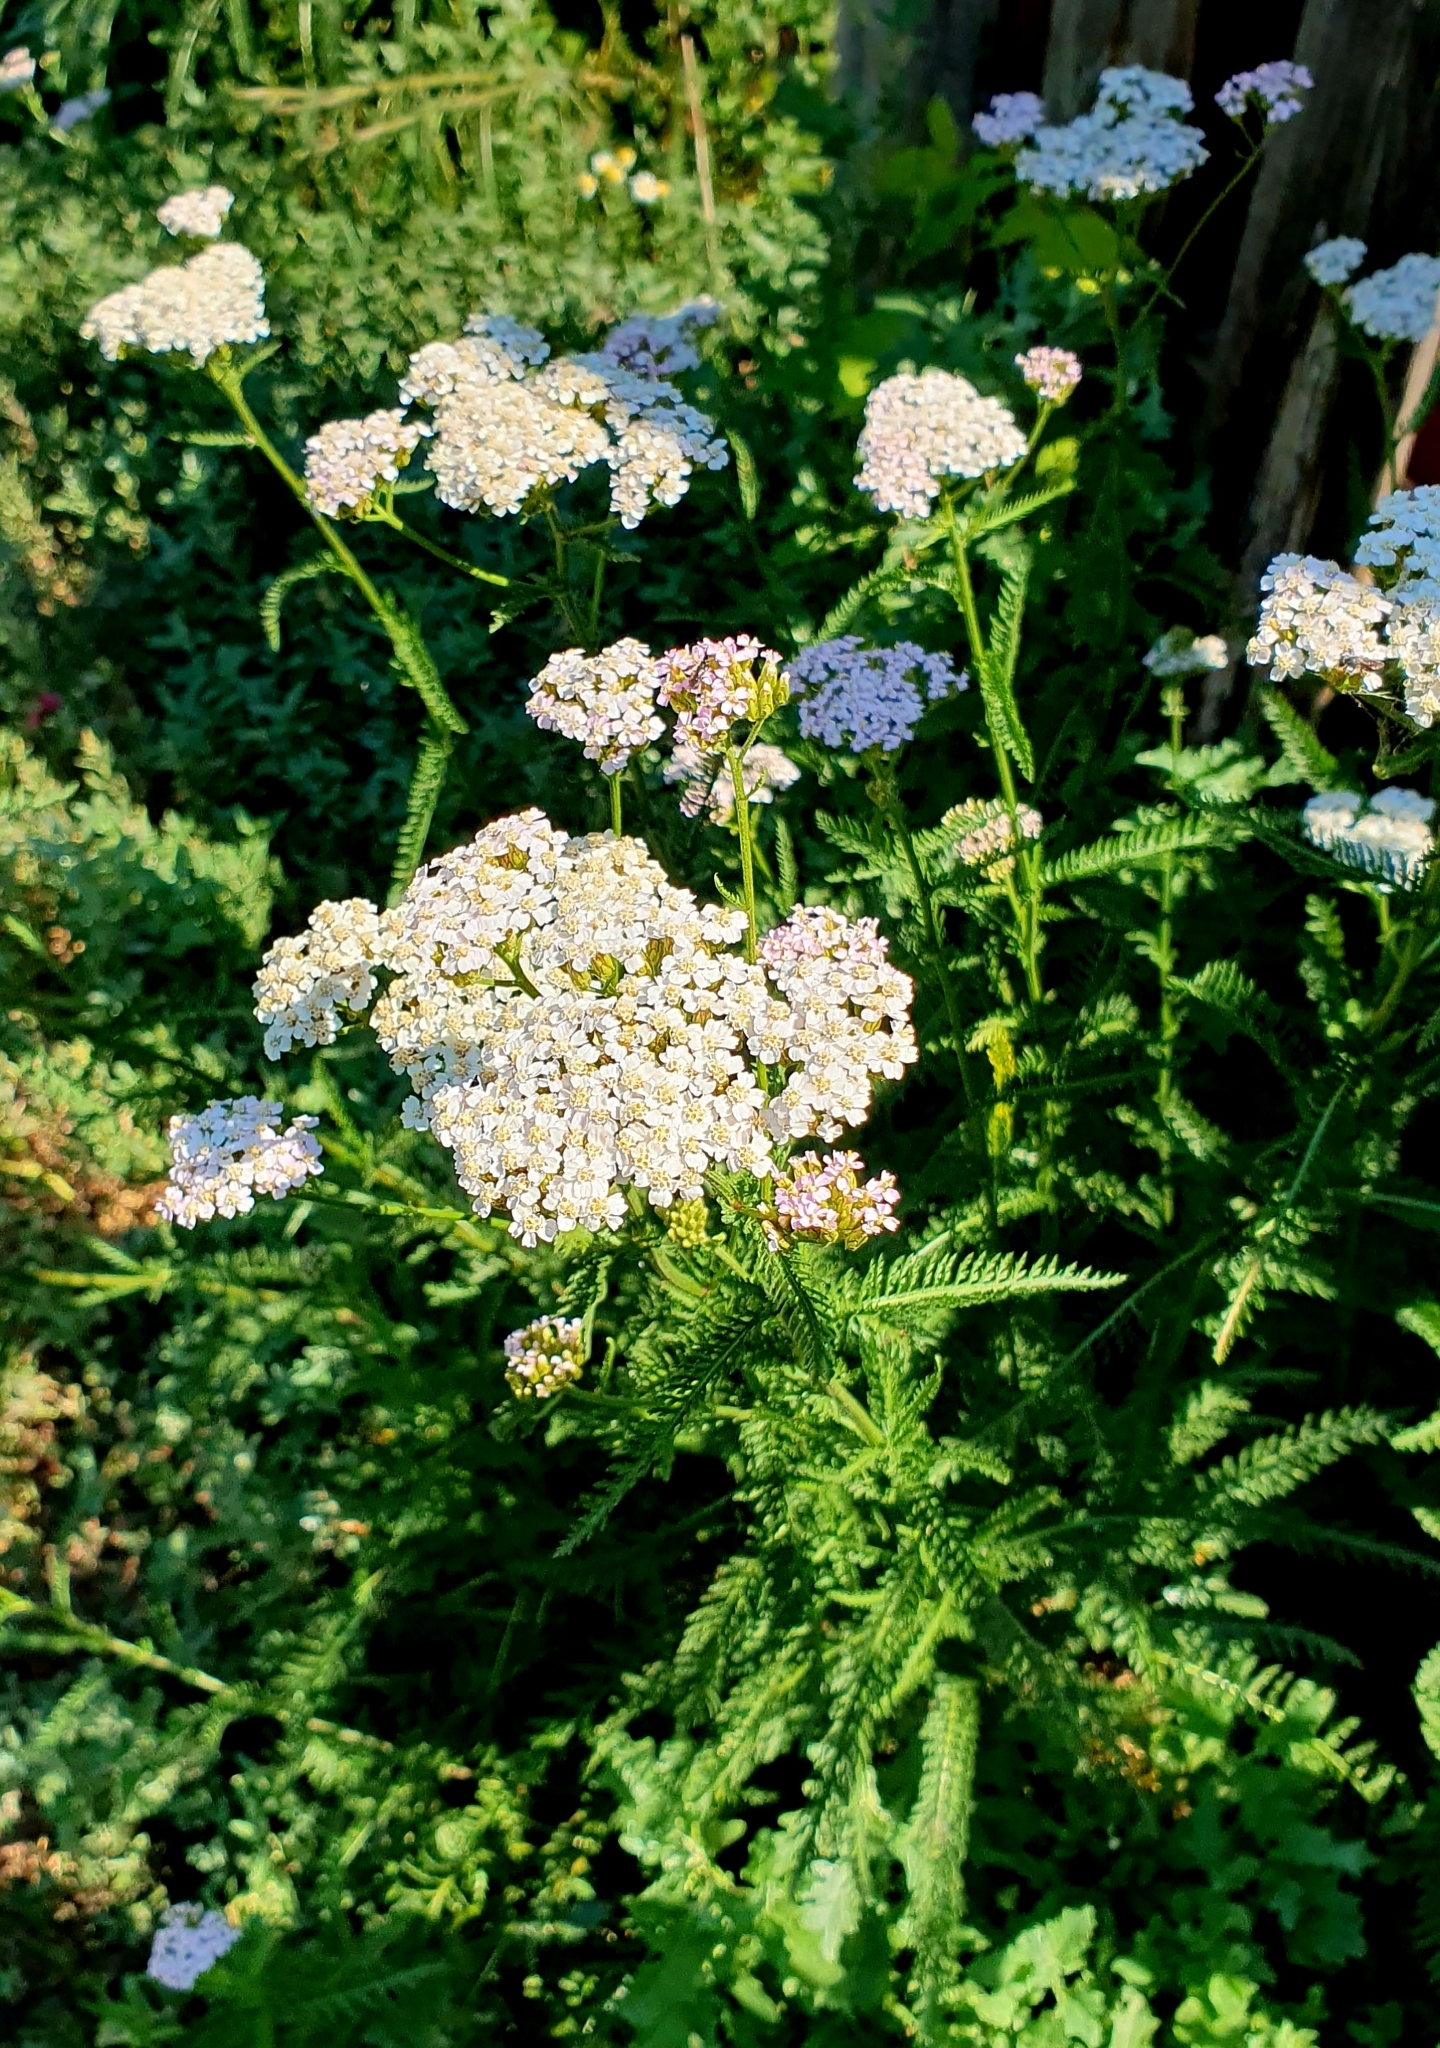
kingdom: Plantae
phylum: Tracheophyta
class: Magnoliopsida
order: Asterales
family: Asteraceae
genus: Achillea
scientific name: Achillea millefolium
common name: Yarrow
